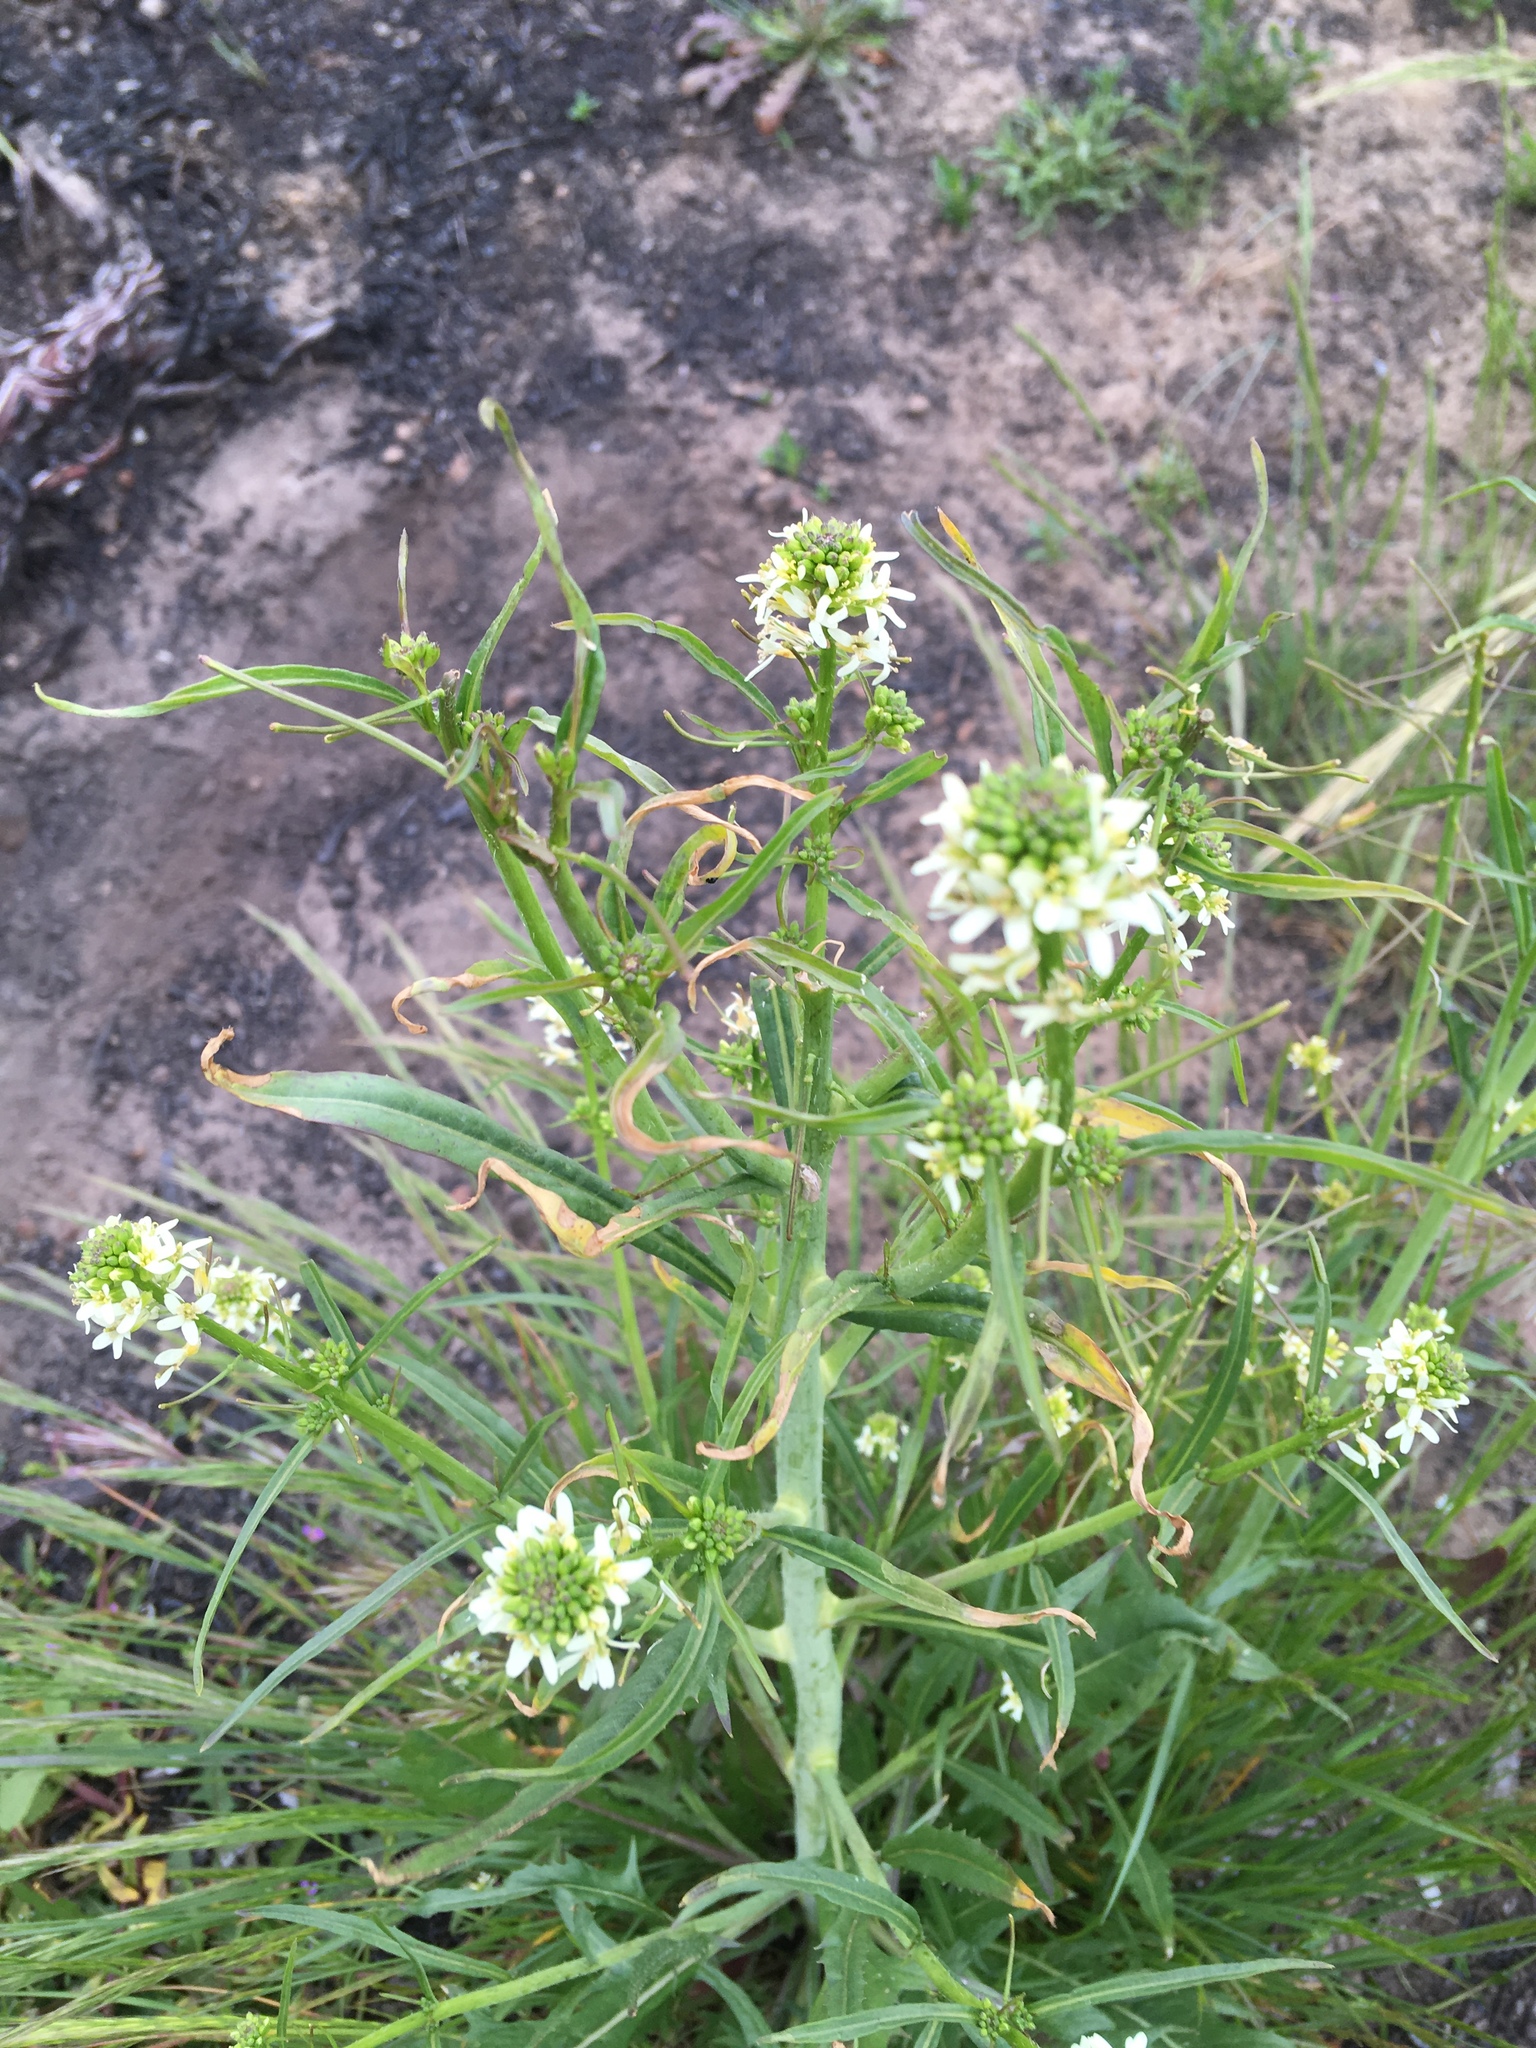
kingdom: Plantae
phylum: Tracheophyta
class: Magnoliopsida
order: Brassicales
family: Brassicaceae
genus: Streptanthus
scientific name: Streptanthus lasiophyllus
